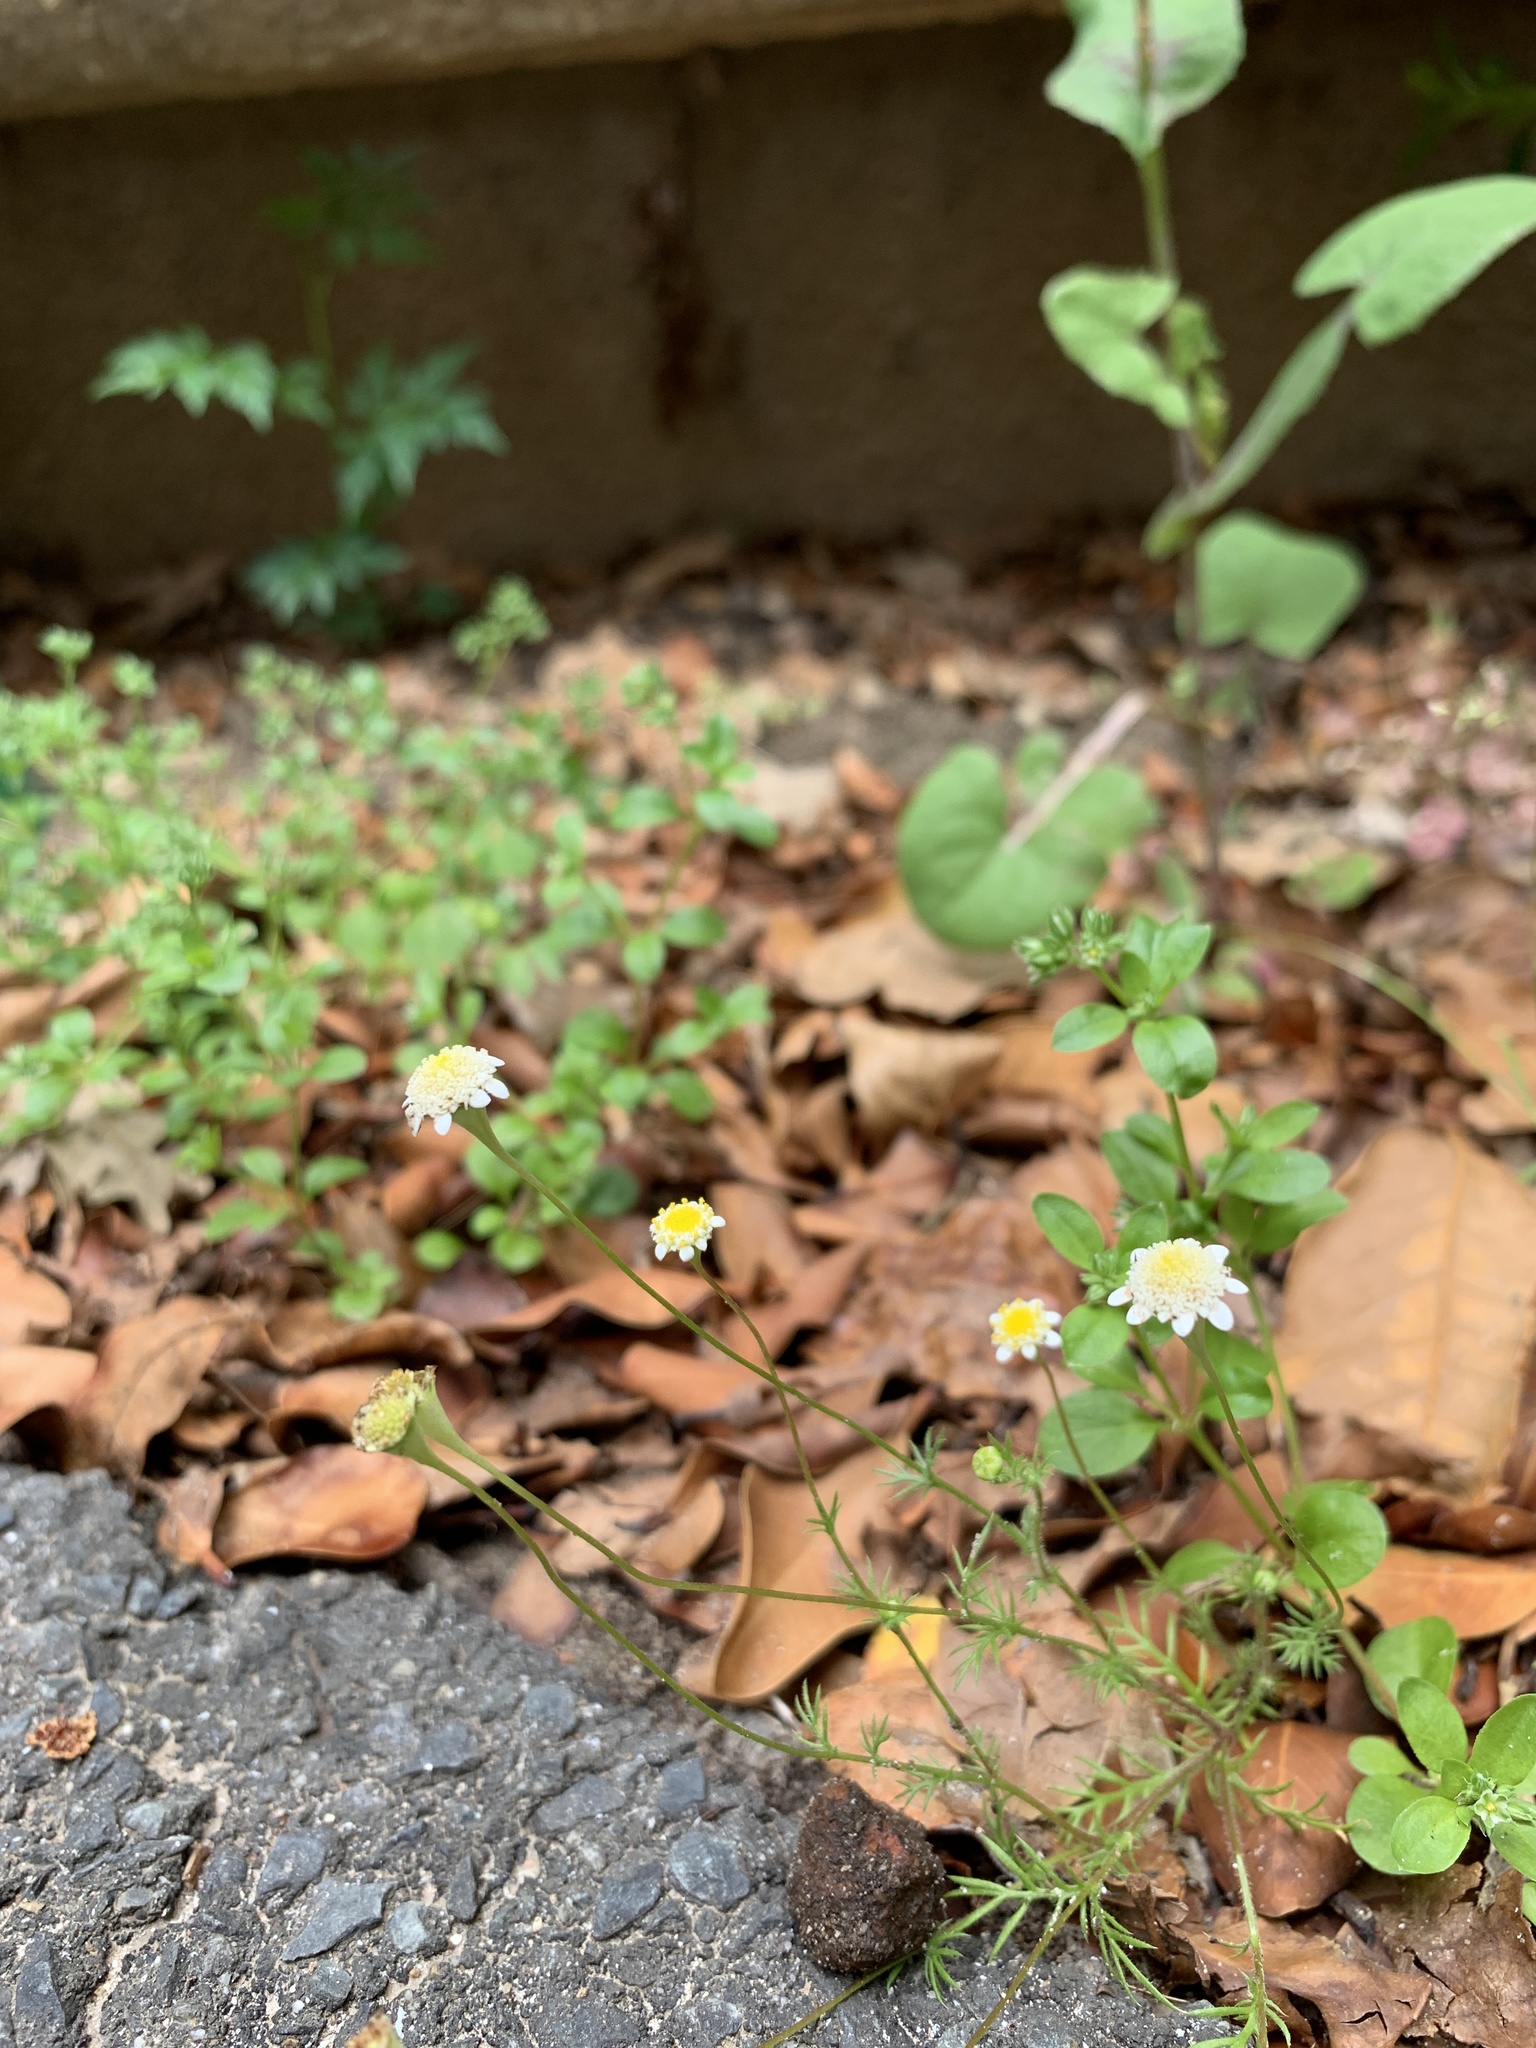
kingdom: Plantae
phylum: Tracheophyta
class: Magnoliopsida
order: Asterales
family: Asteraceae
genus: Cotula
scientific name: Cotula turbinata
